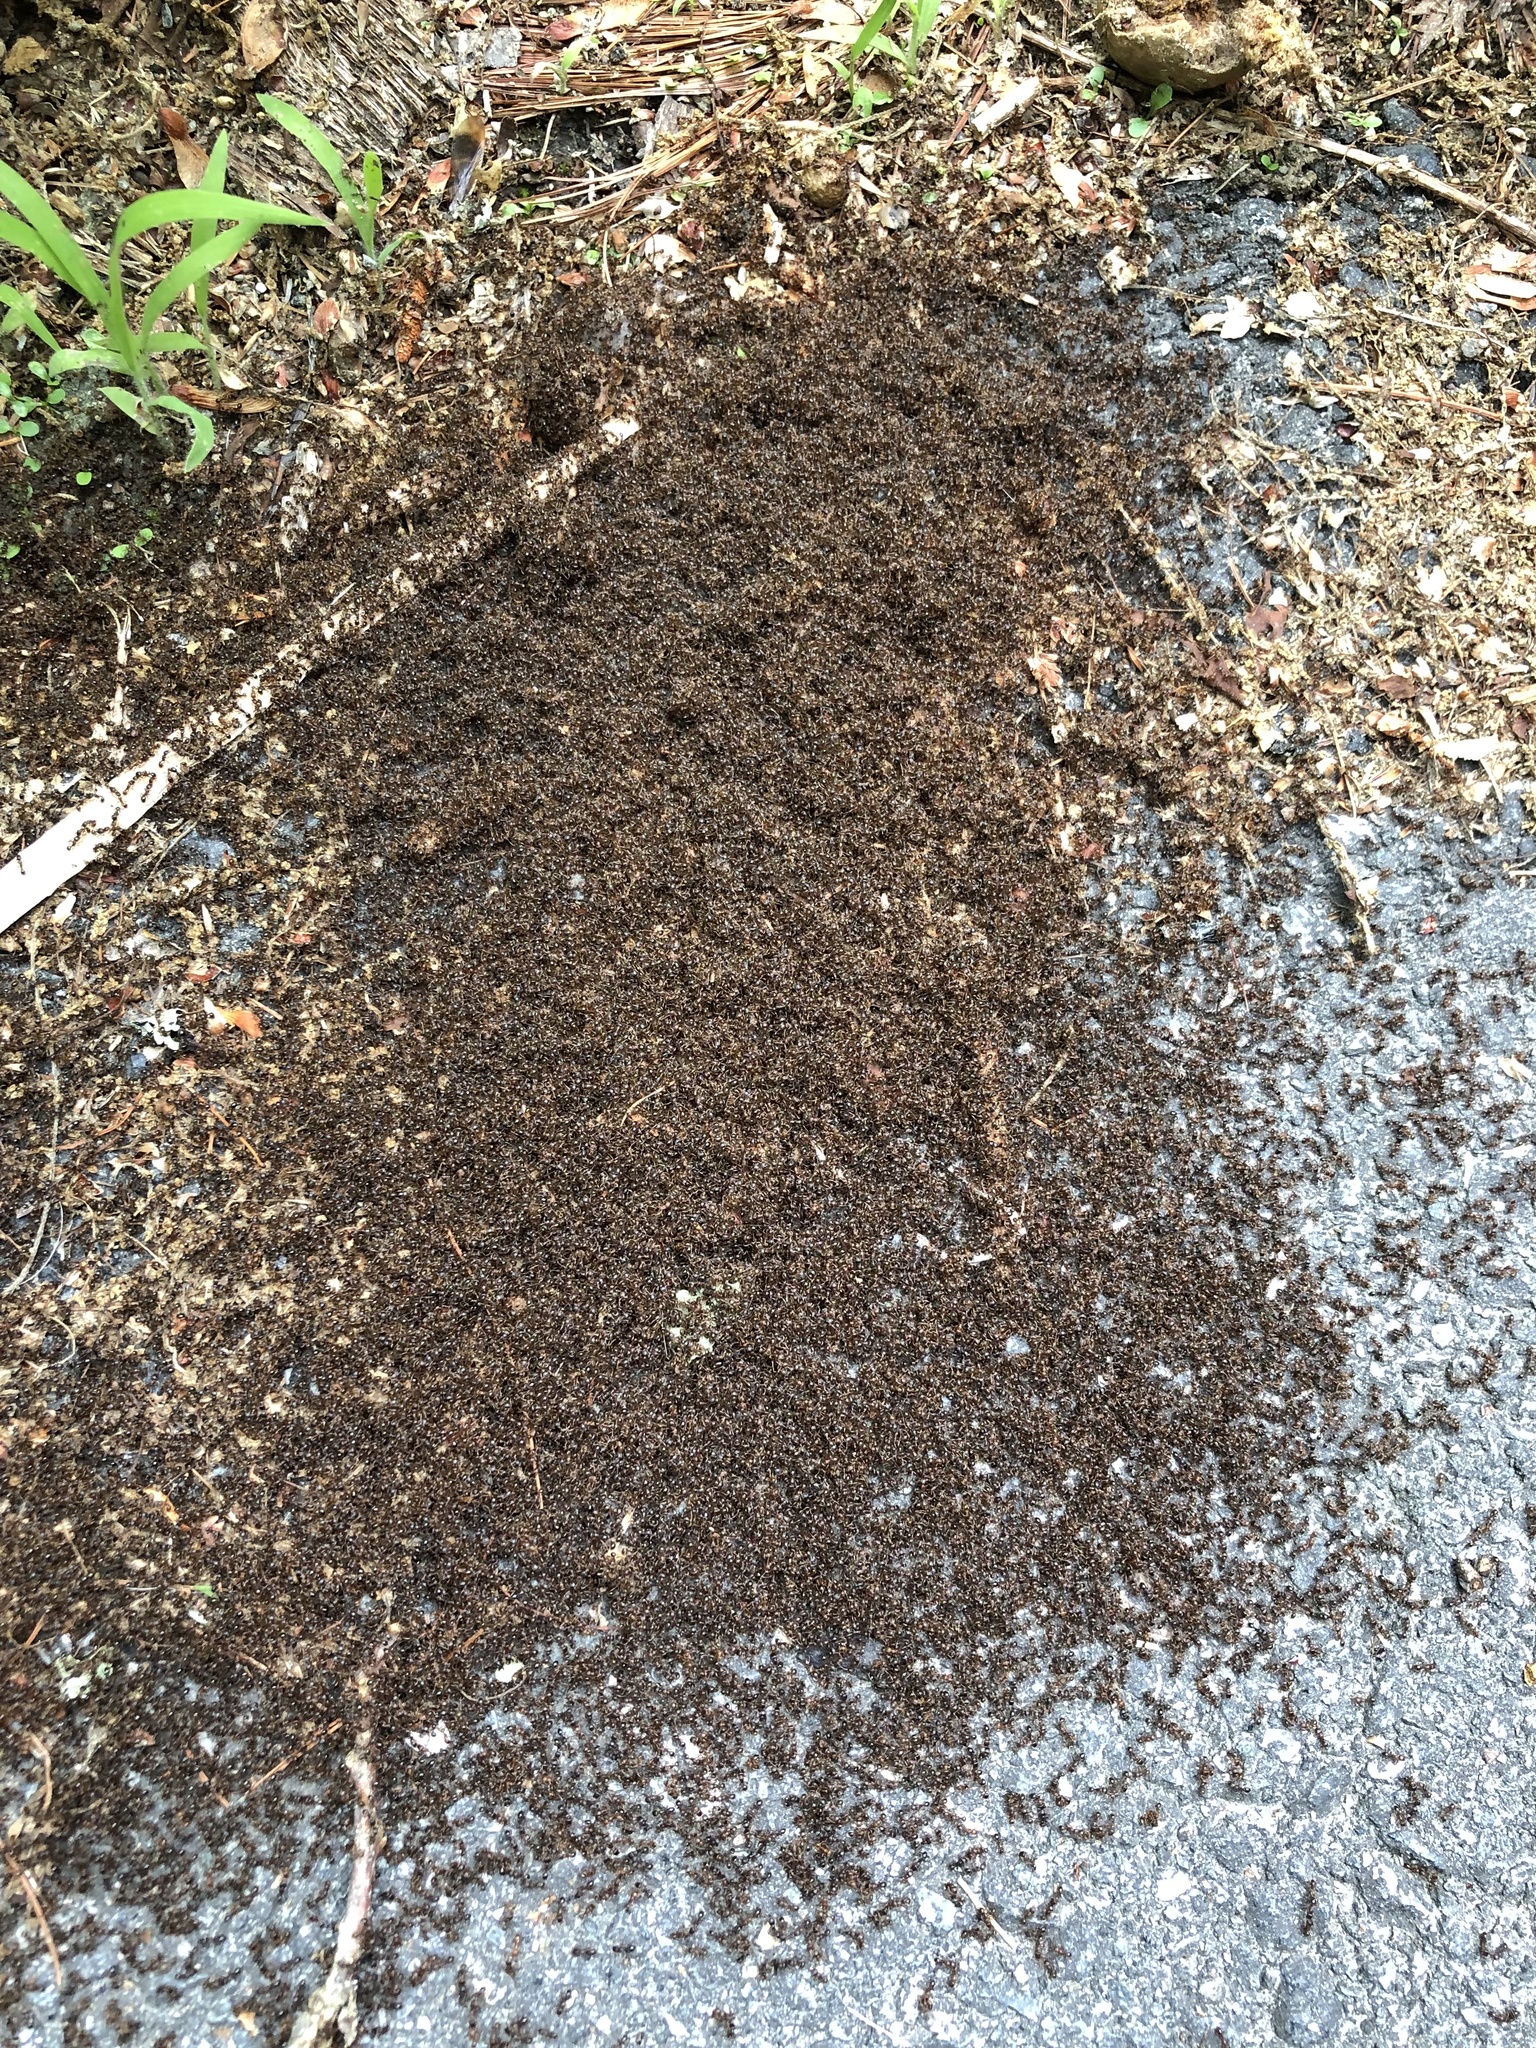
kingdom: Animalia
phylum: Arthropoda
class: Insecta
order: Hymenoptera
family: Formicidae
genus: Tetramorium
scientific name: Tetramorium immigrans
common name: Pavement ant
